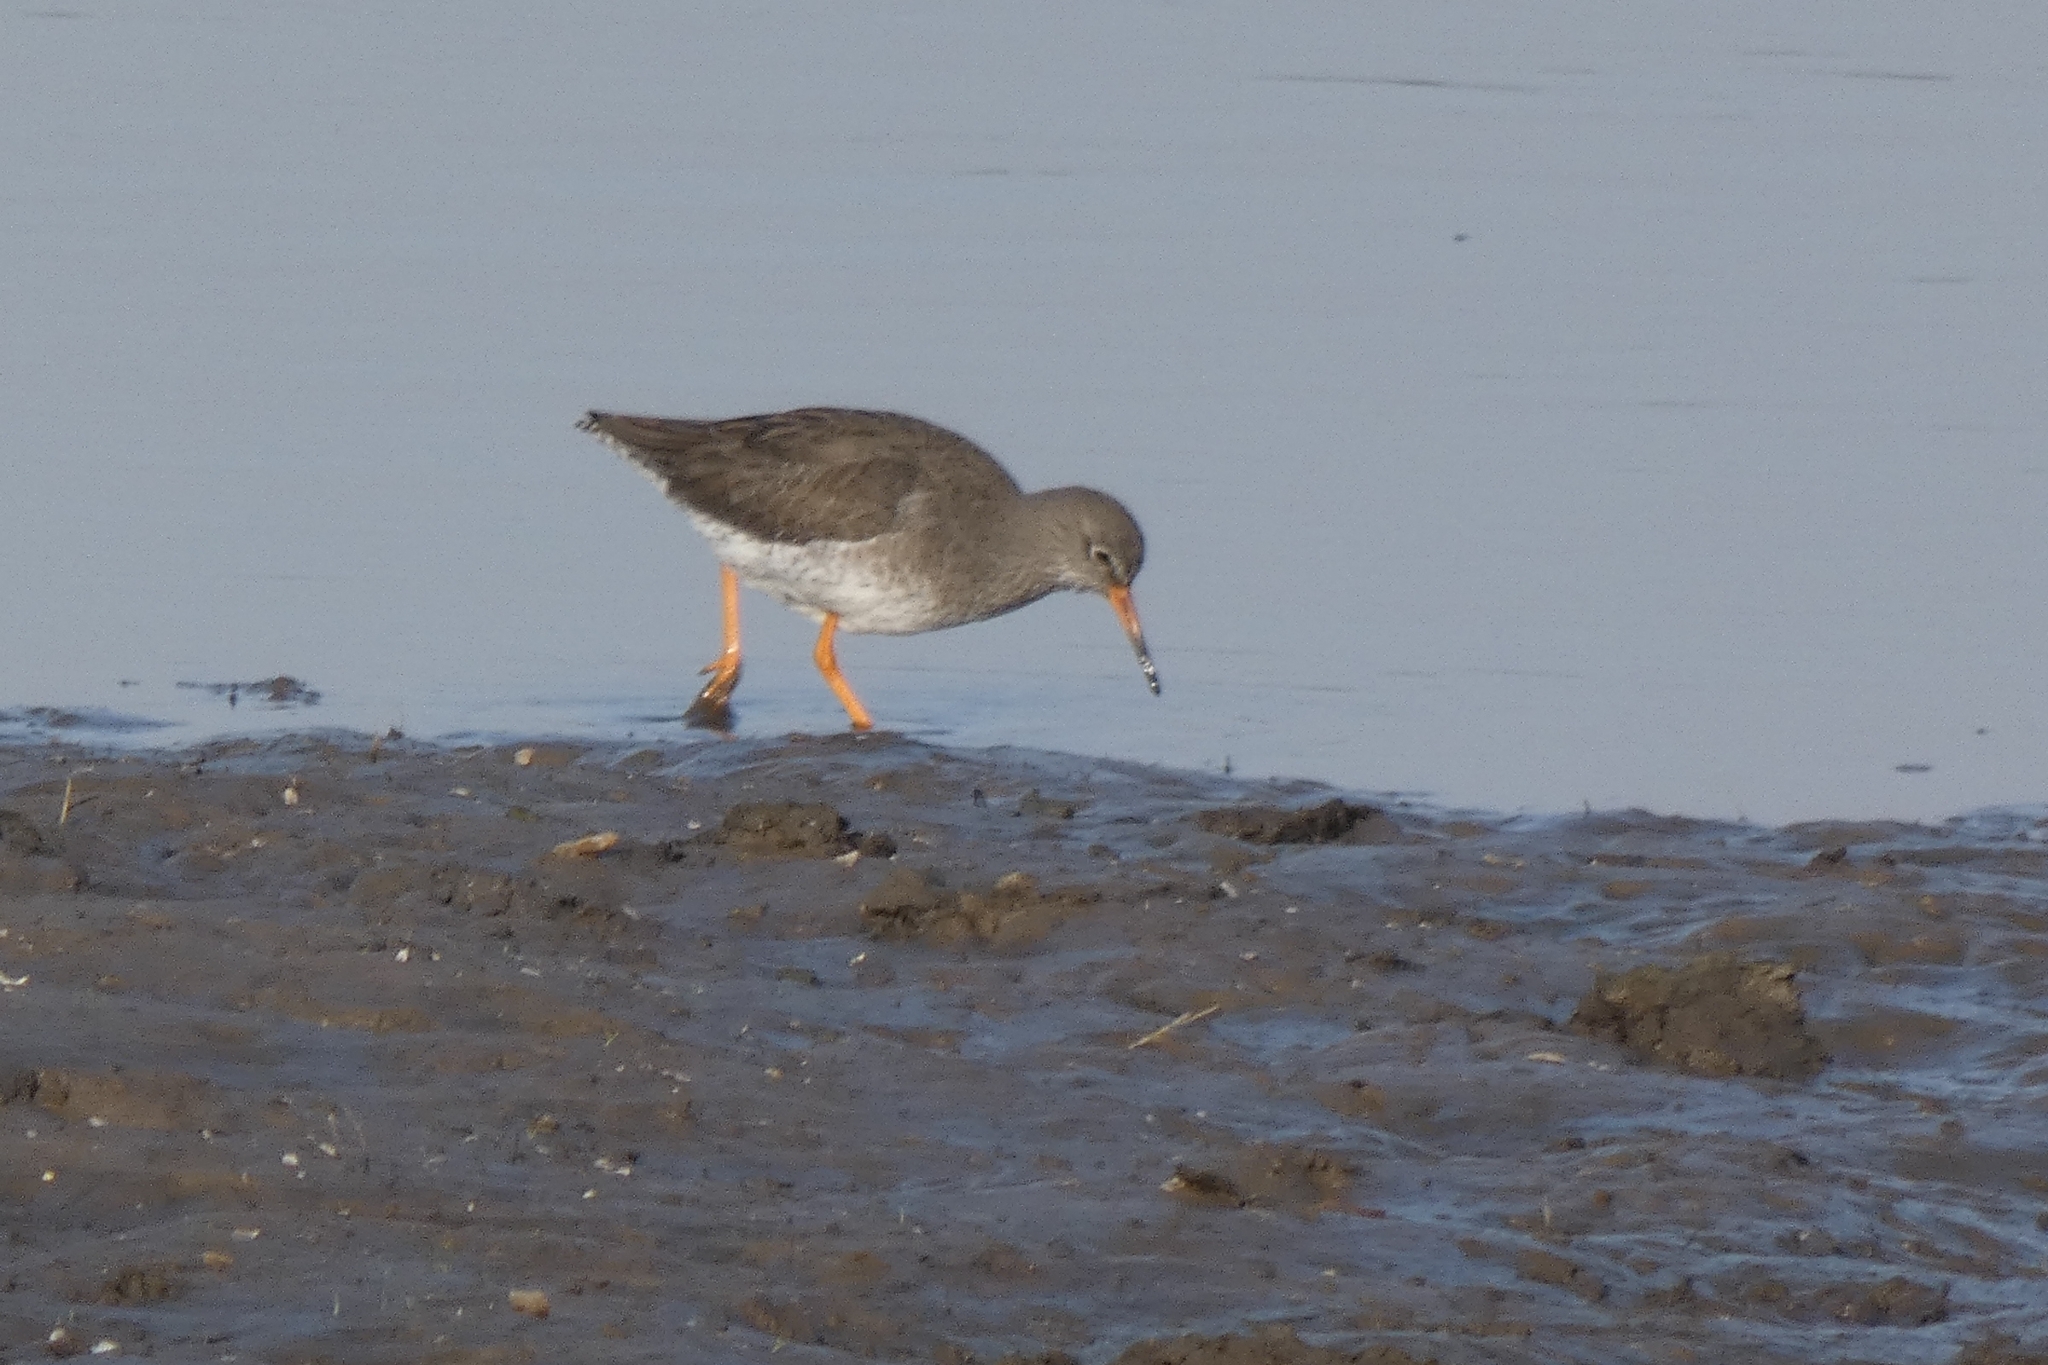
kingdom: Animalia
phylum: Chordata
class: Aves
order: Charadriiformes
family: Scolopacidae
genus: Tringa
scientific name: Tringa totanus
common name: Common redshank
